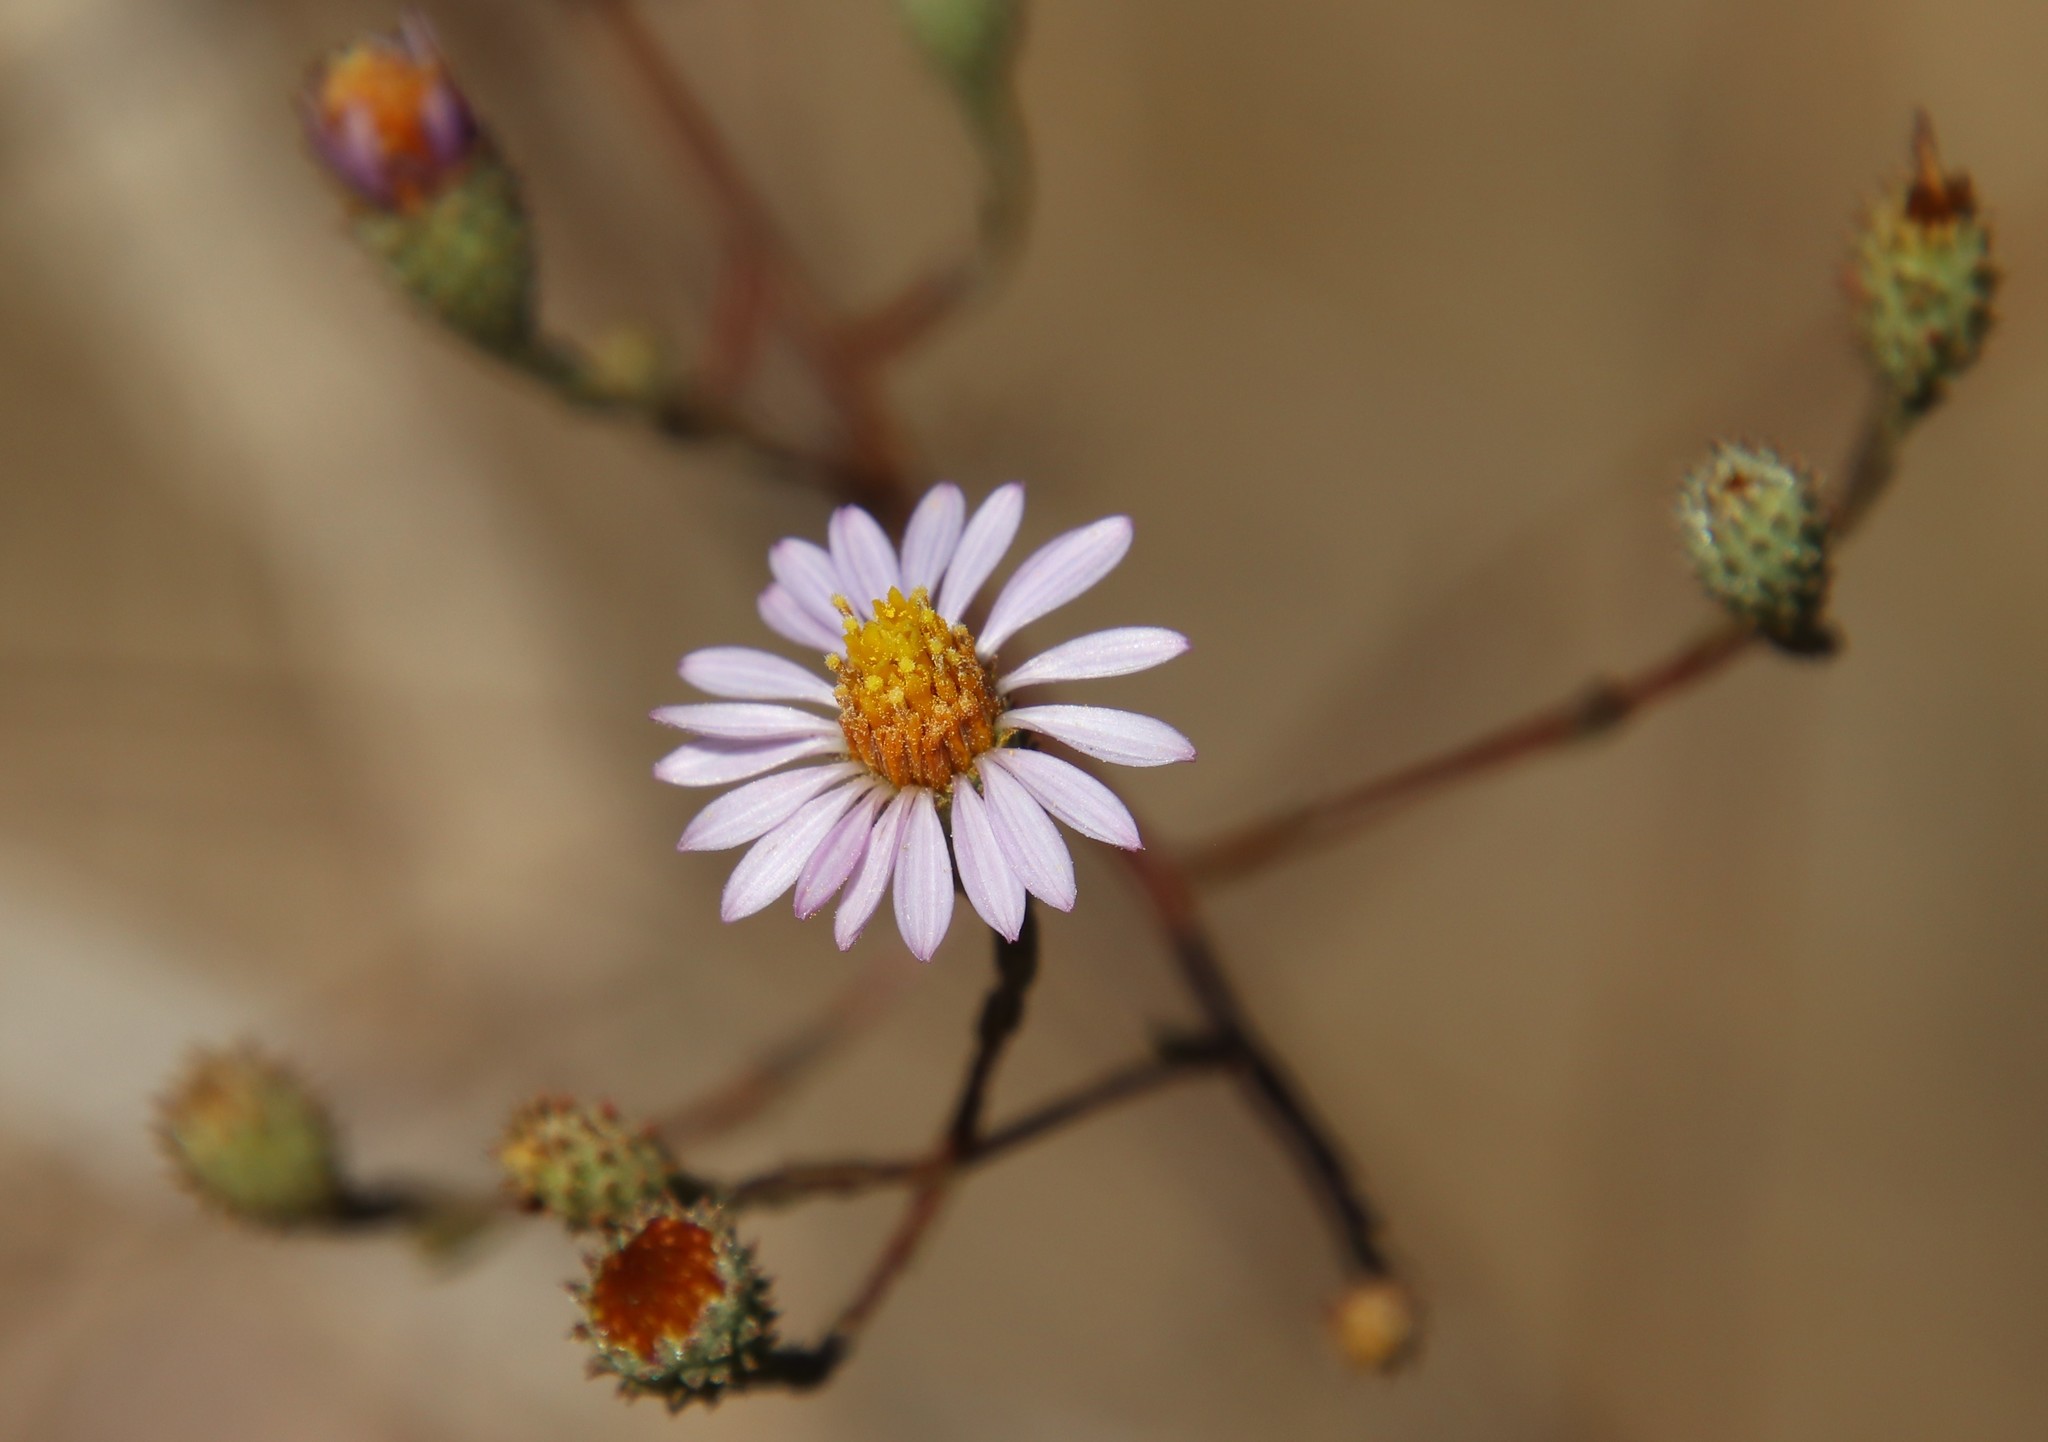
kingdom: Plantae
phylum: Tracheophyta
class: Magnoliopsida
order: Asterales
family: Asteraceae
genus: Corethrogyne
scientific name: Corethrogyne filaginifolia
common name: Sand-aster
